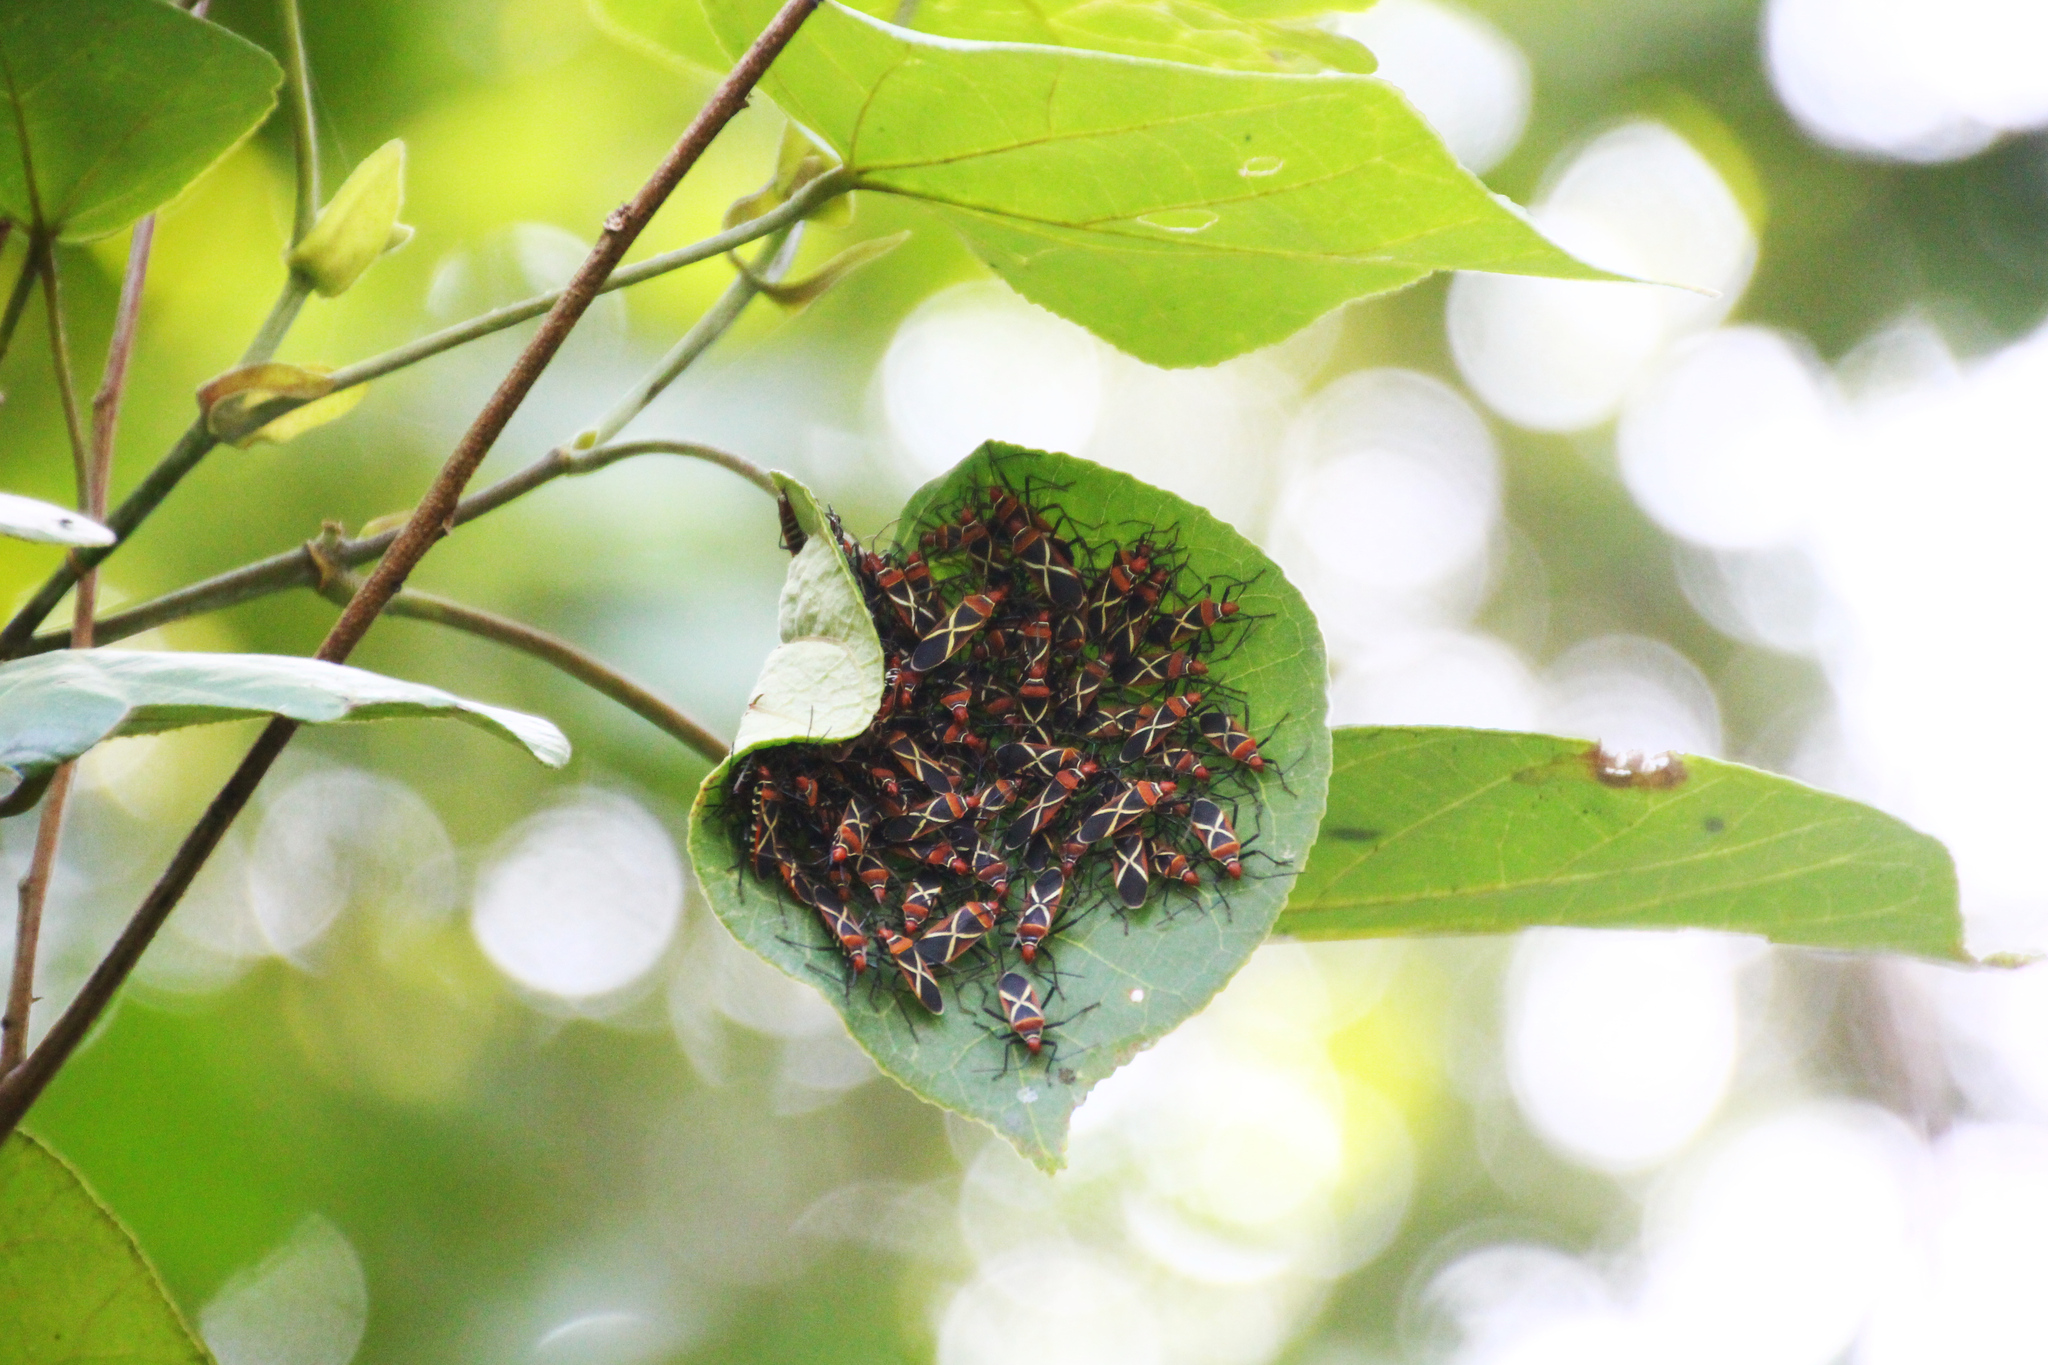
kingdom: Animalia
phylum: Arthropoda
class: Insecta
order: Hemiptera
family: Pyrrhocoridae
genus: Dysdercus
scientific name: Dysdercus decussatus
